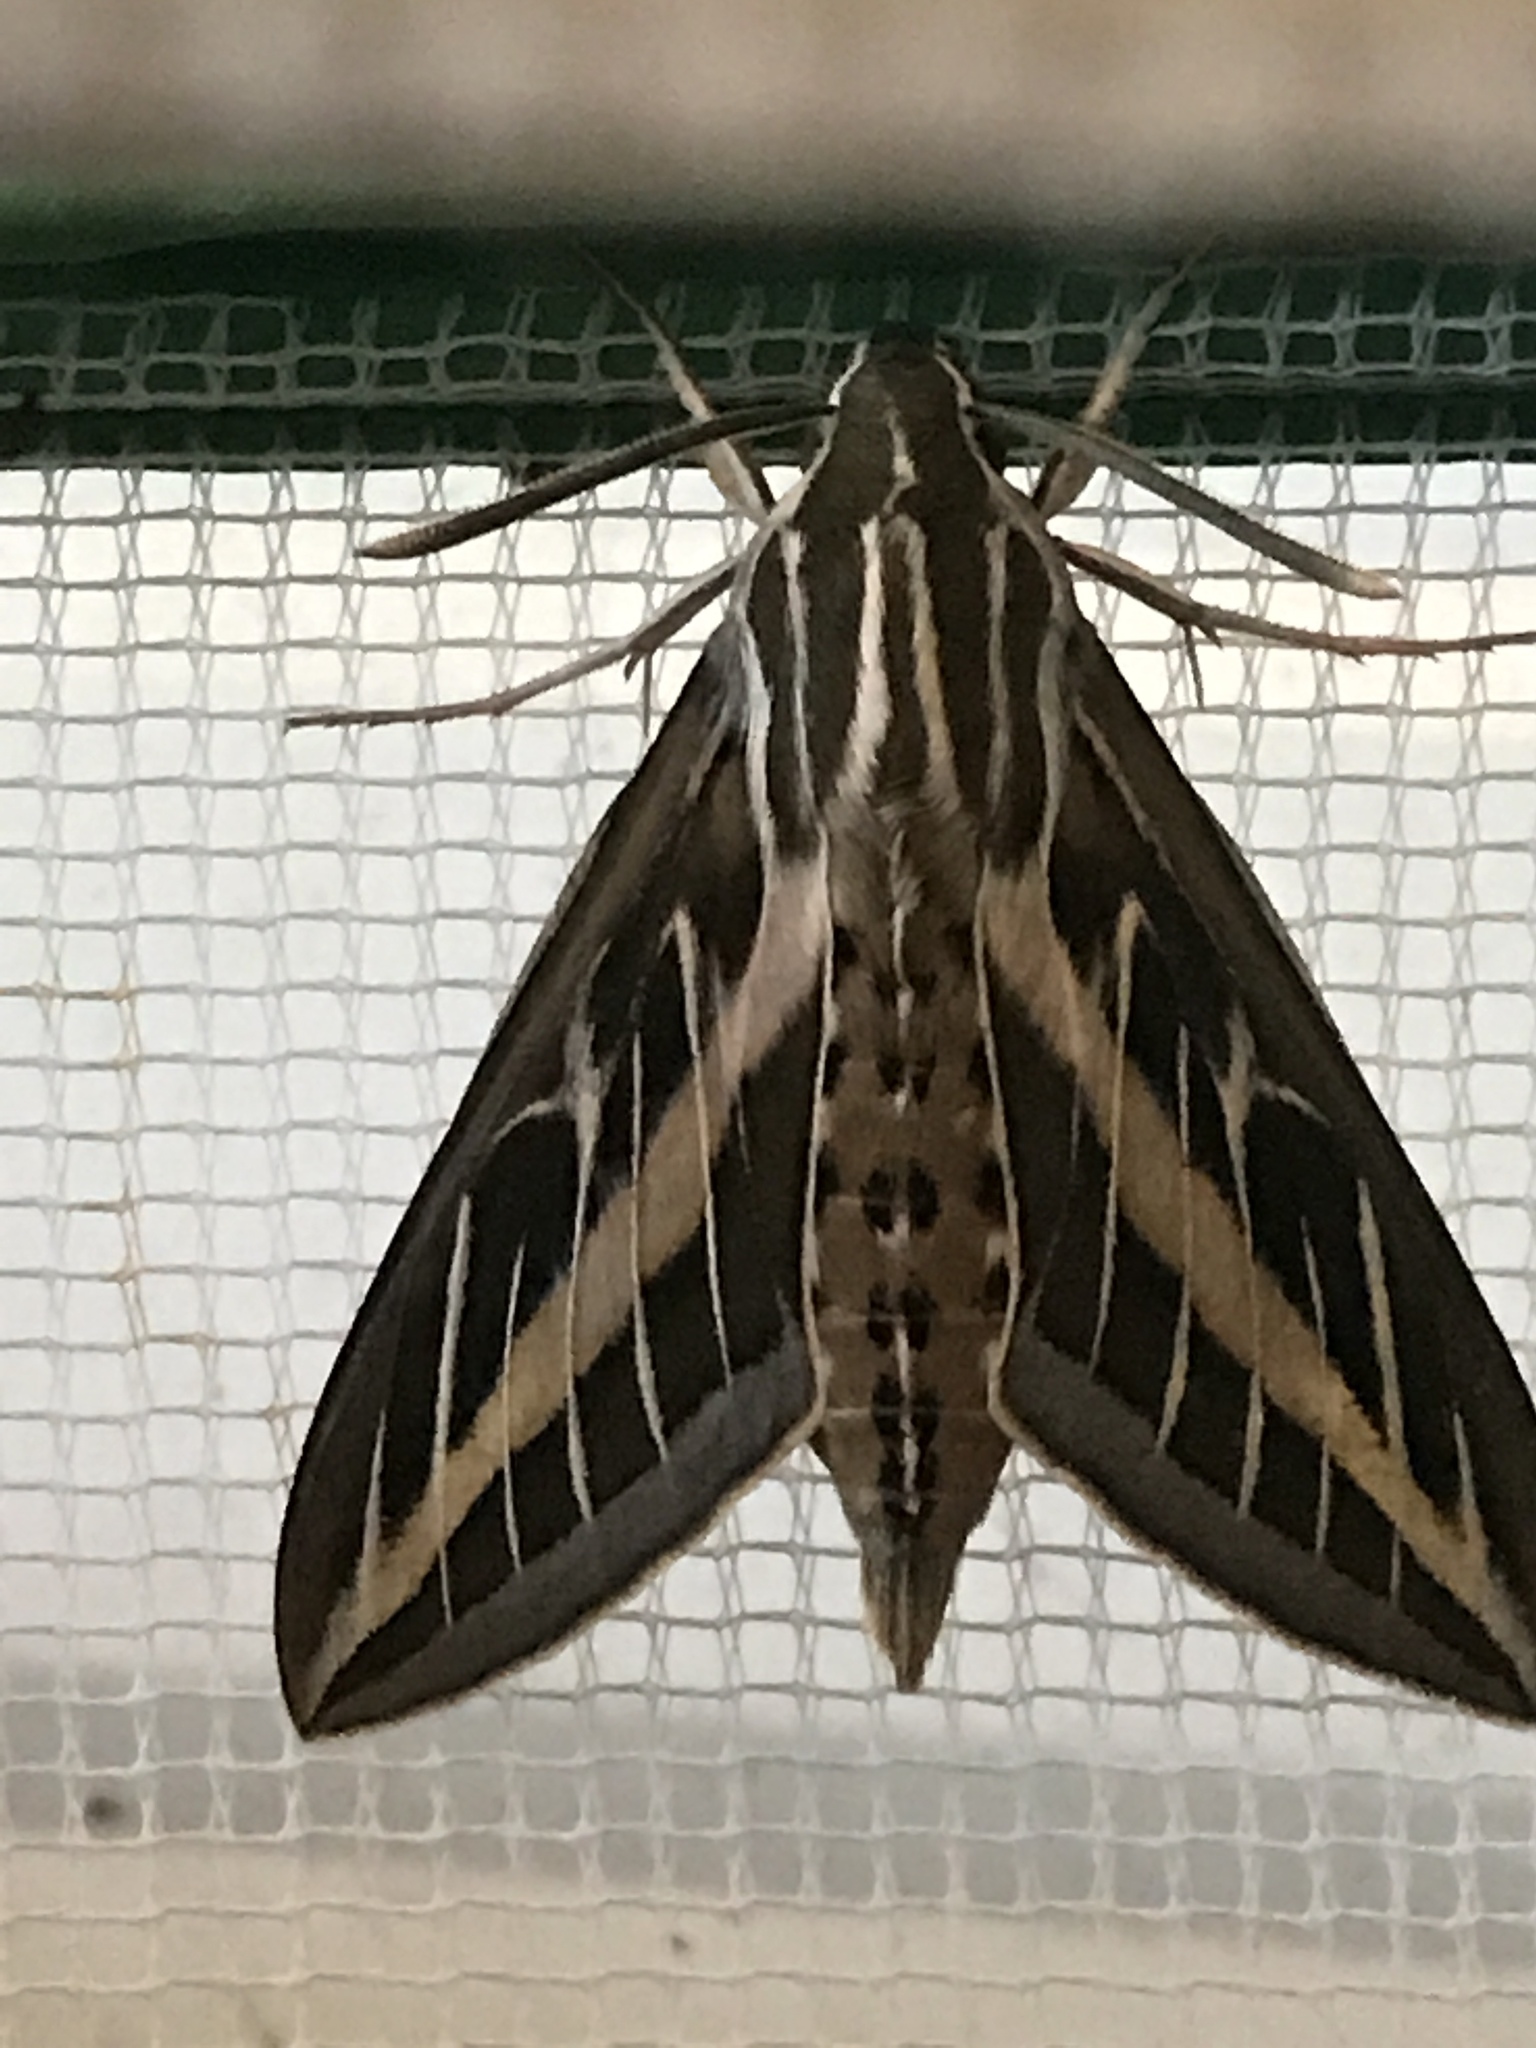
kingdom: Animalia
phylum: Arthropoda
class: Insecta
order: Lepidoptera
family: Sphingidae
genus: Hyles
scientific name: Hyles lineata
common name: White-lined sphinx
